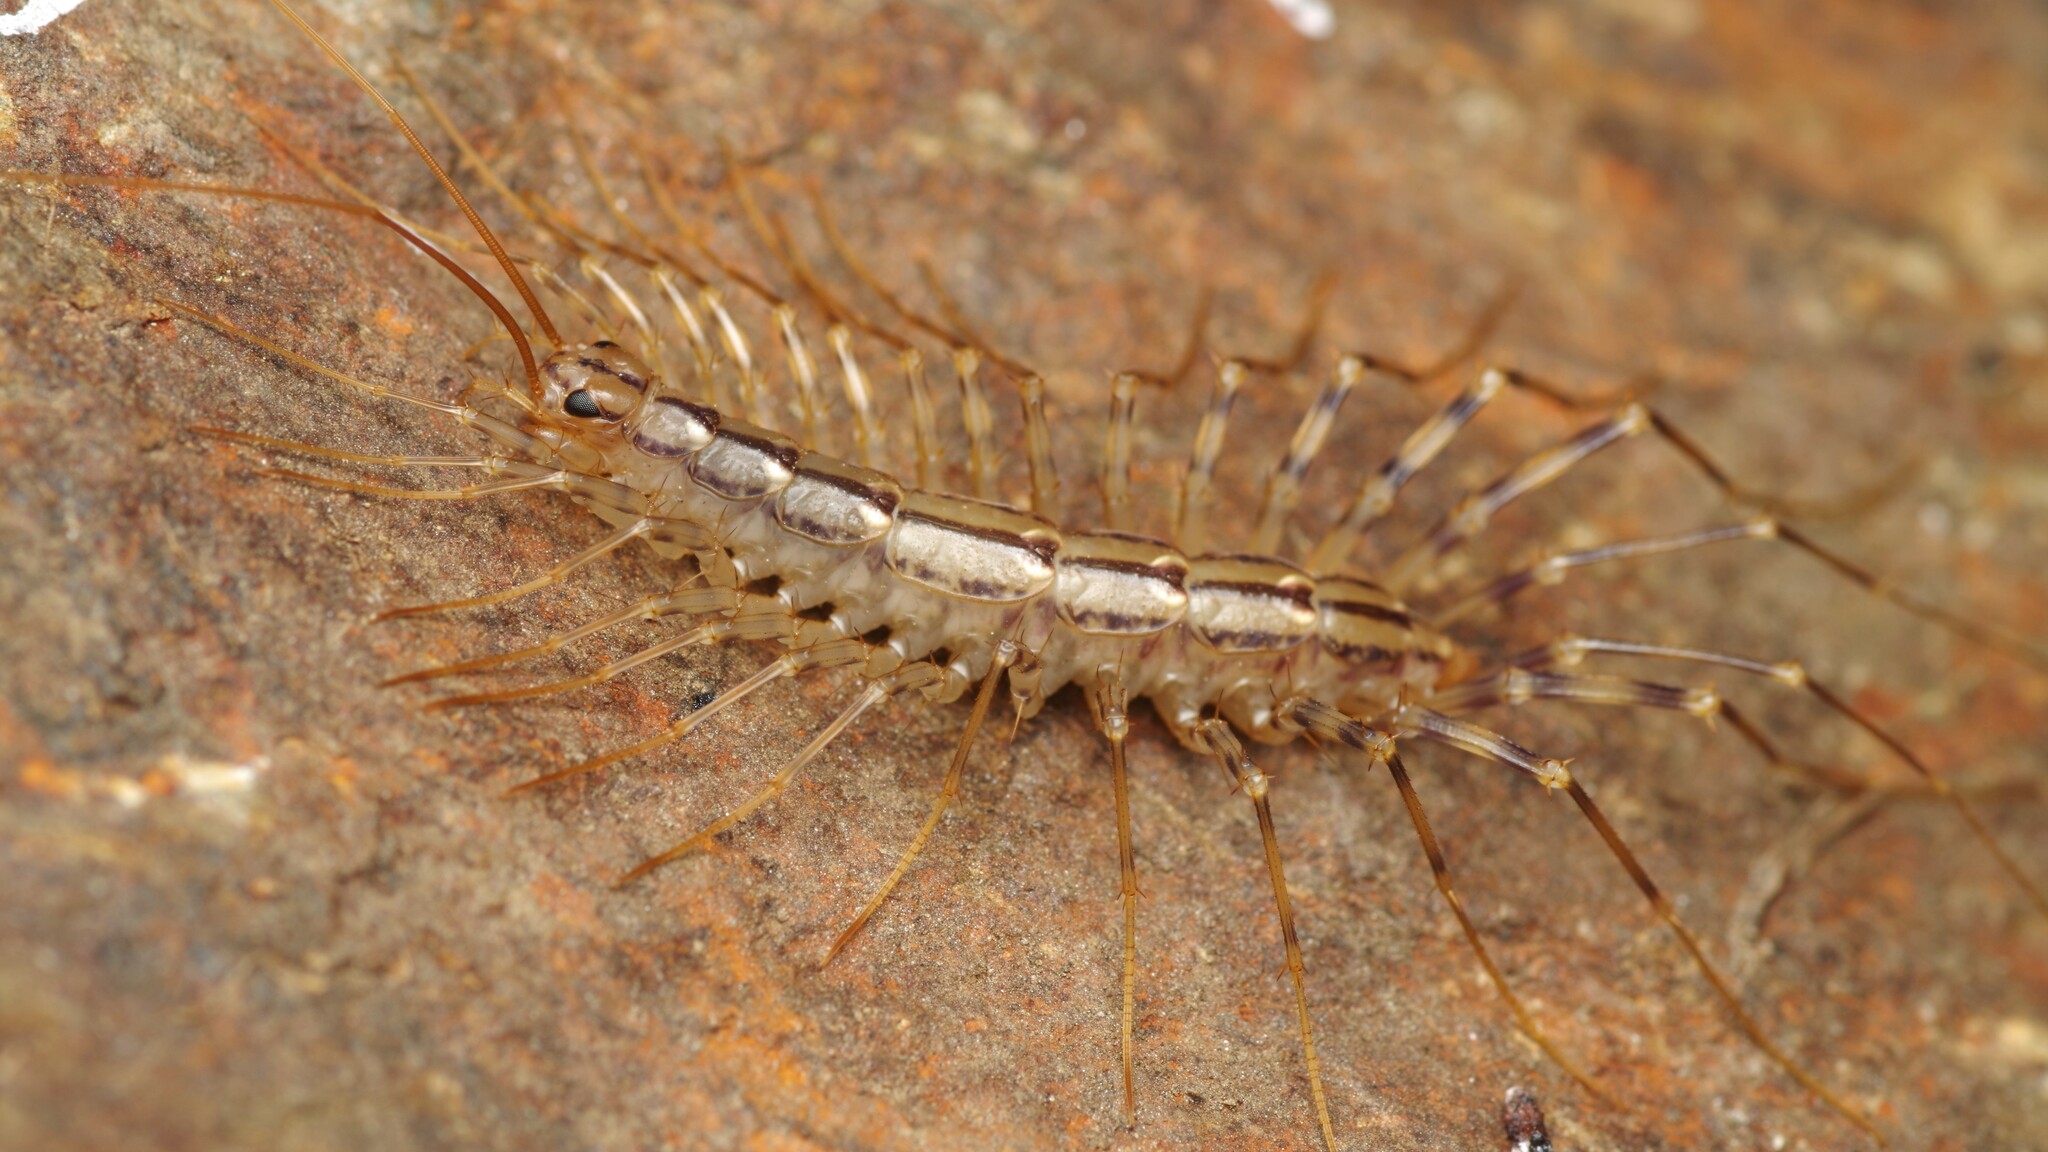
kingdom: Animalia
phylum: Arthropoda
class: Chilopoda
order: Scutigeromorpha
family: Scutigeridae
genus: Scutigera
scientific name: Scutigera coleoptrata
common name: House centipede
